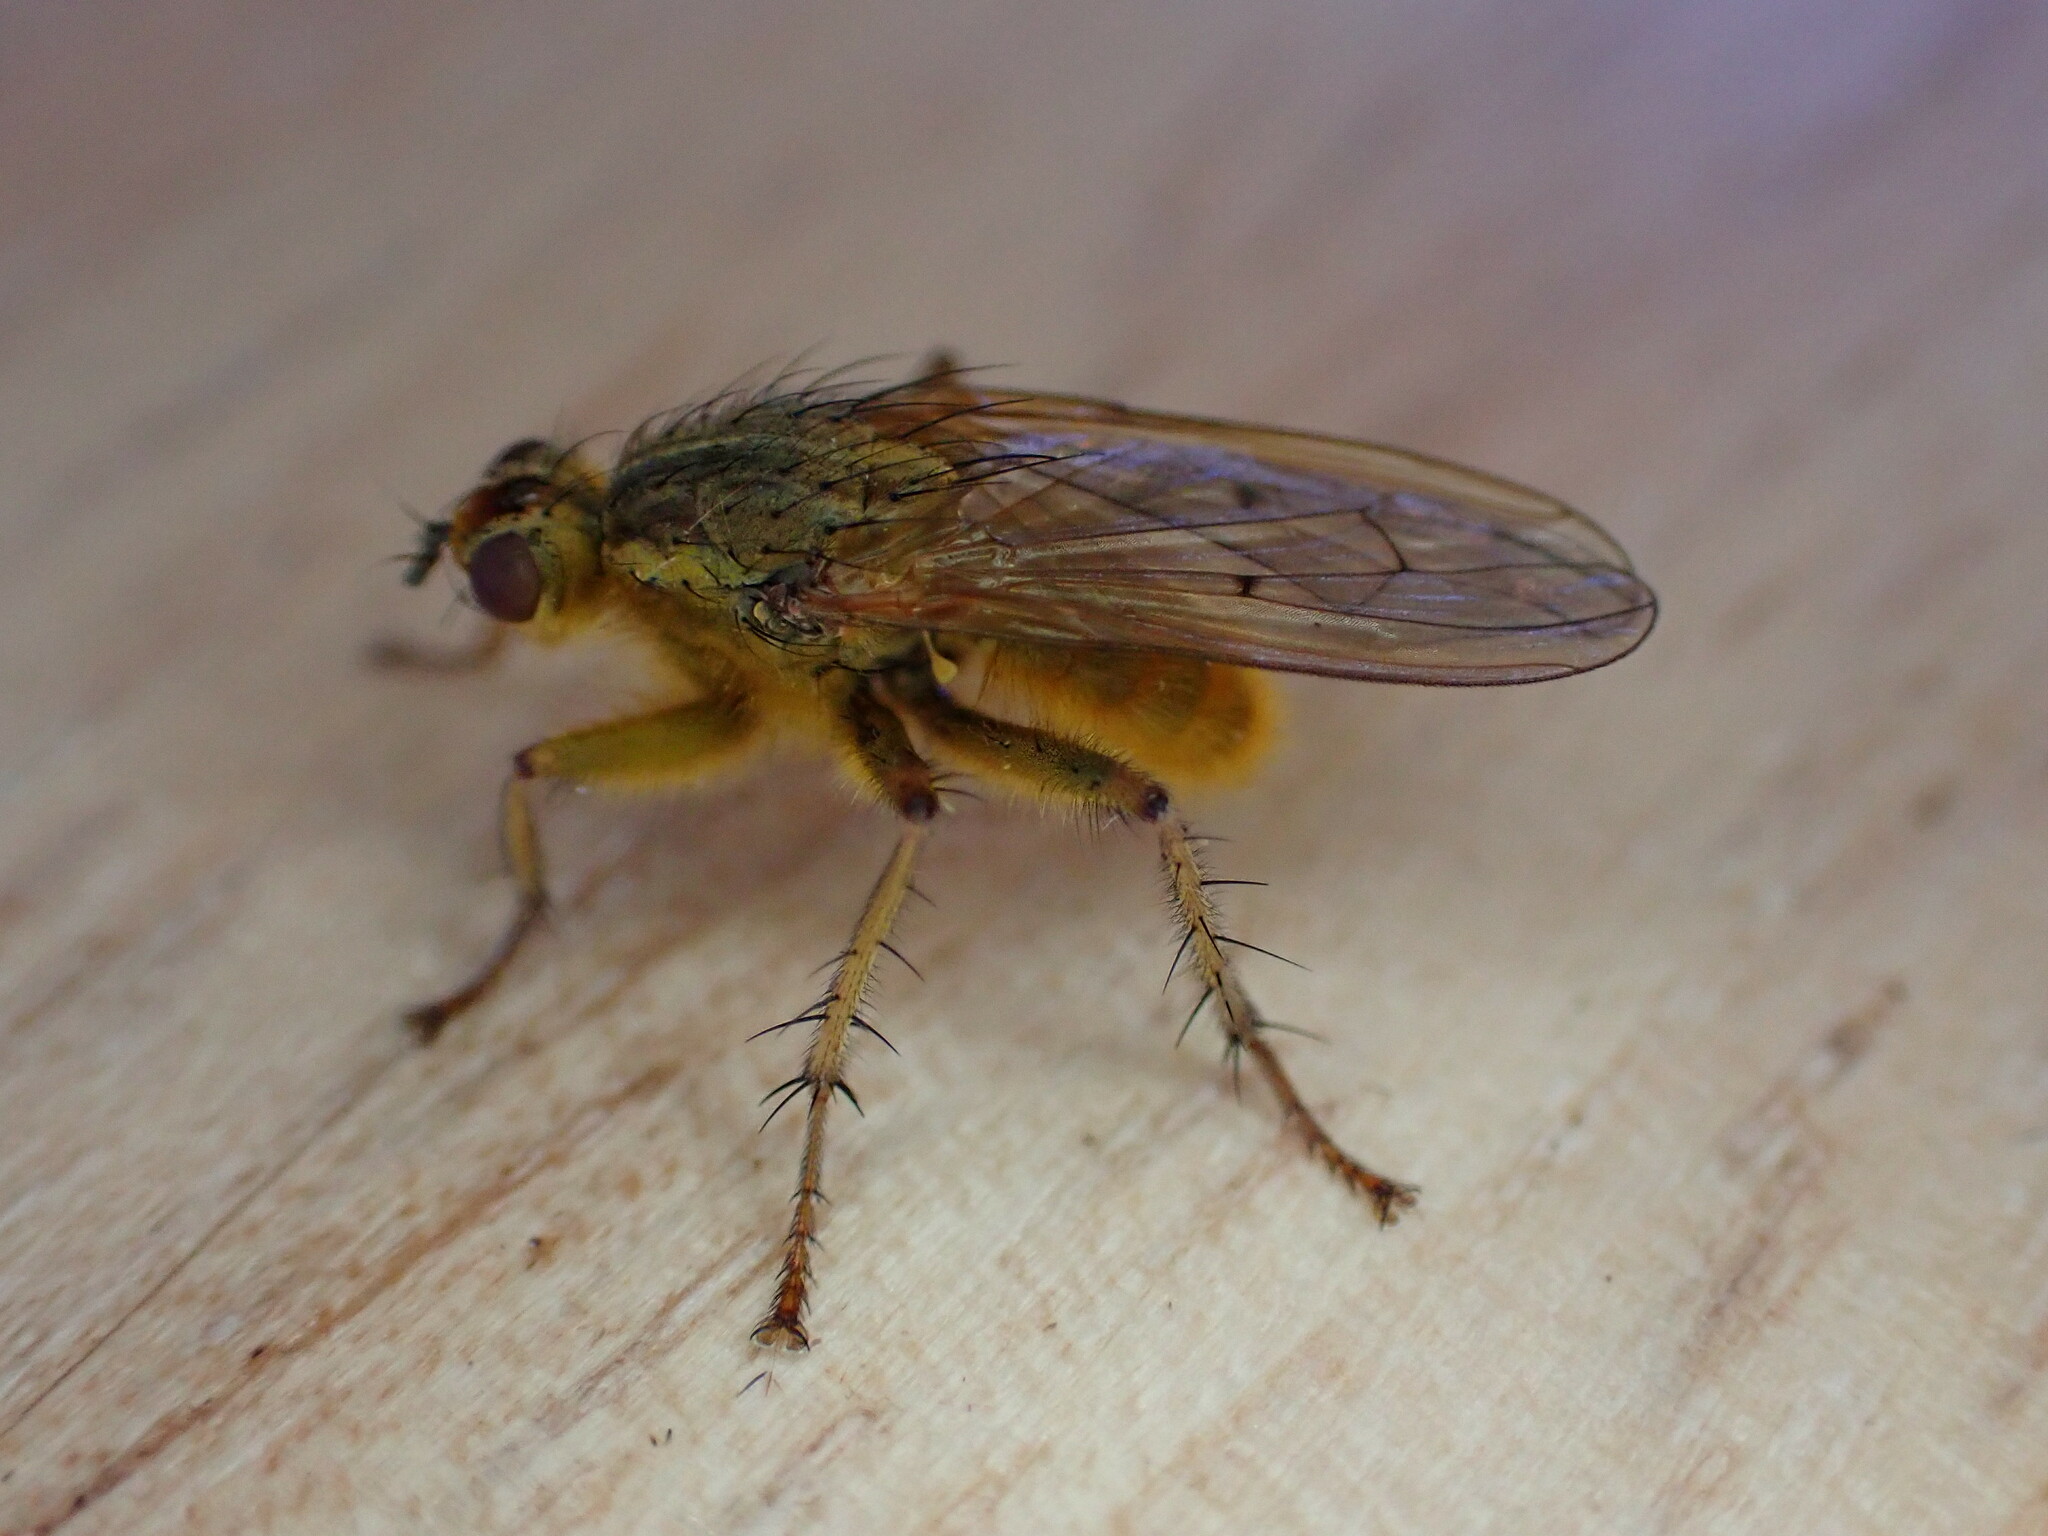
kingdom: Animalia
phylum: Arthropoda
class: Insecta
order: Diptera
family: Scathophagidae
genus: Scathophaga
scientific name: Scathophaga stercoraria
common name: Yellow dung fly
